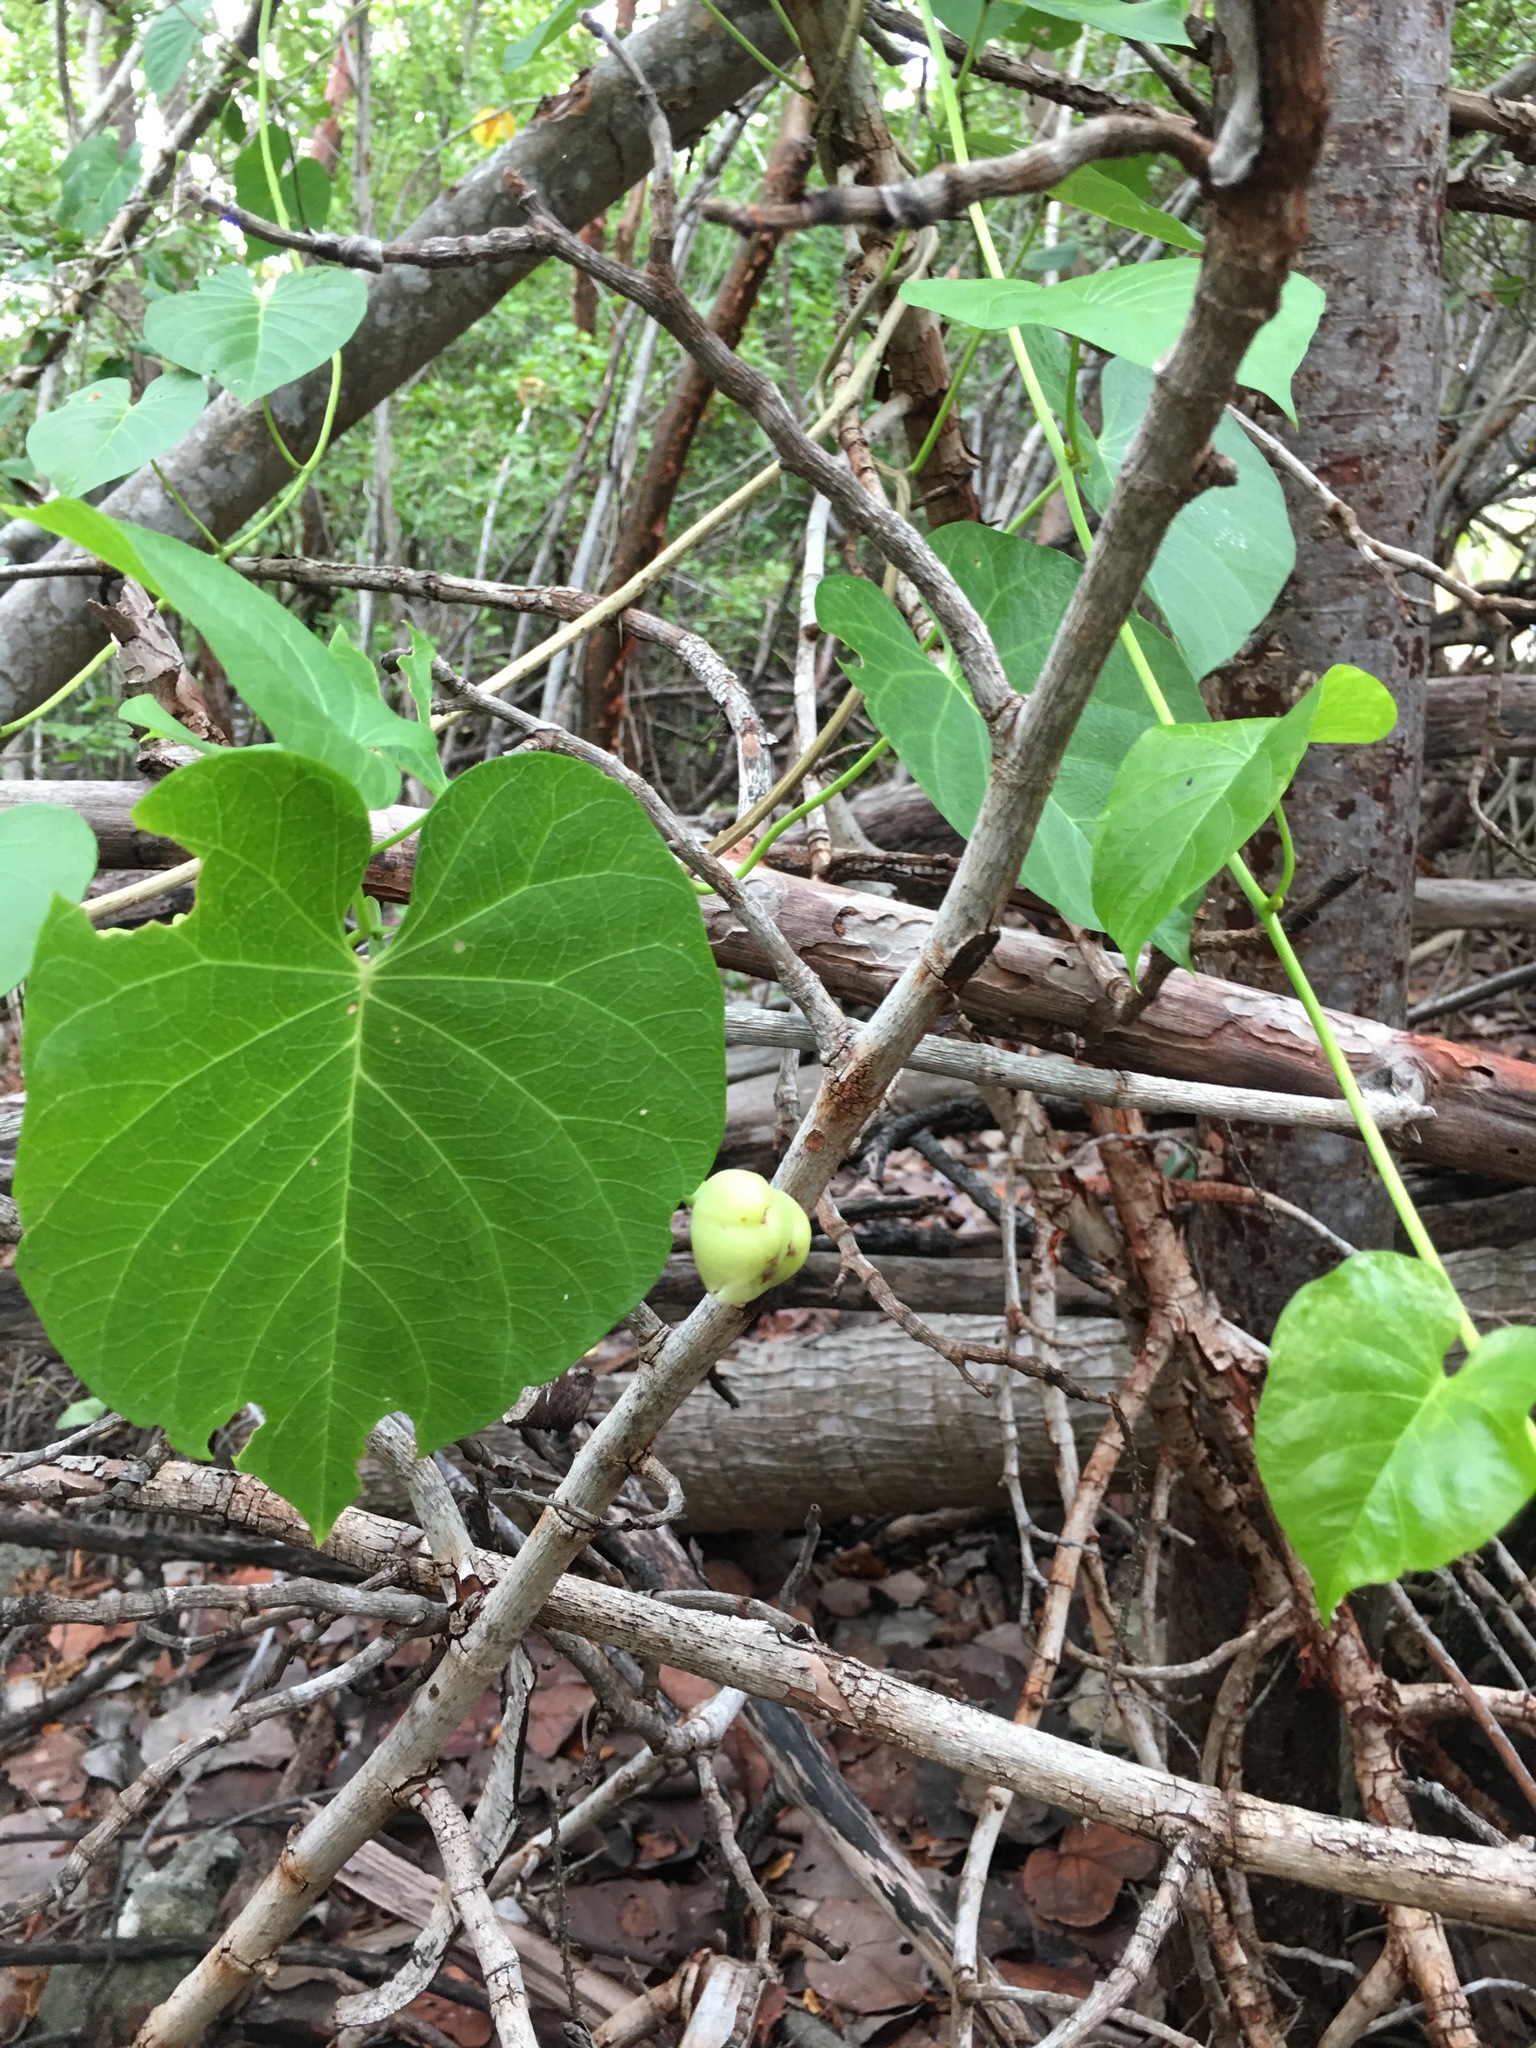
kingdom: Plantae
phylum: Tracheophyta
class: Magnoliopsida
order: Solanales
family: Convolvulaceae
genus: Ipomoea
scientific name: Ipomoea violacea
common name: Beach moonflower
